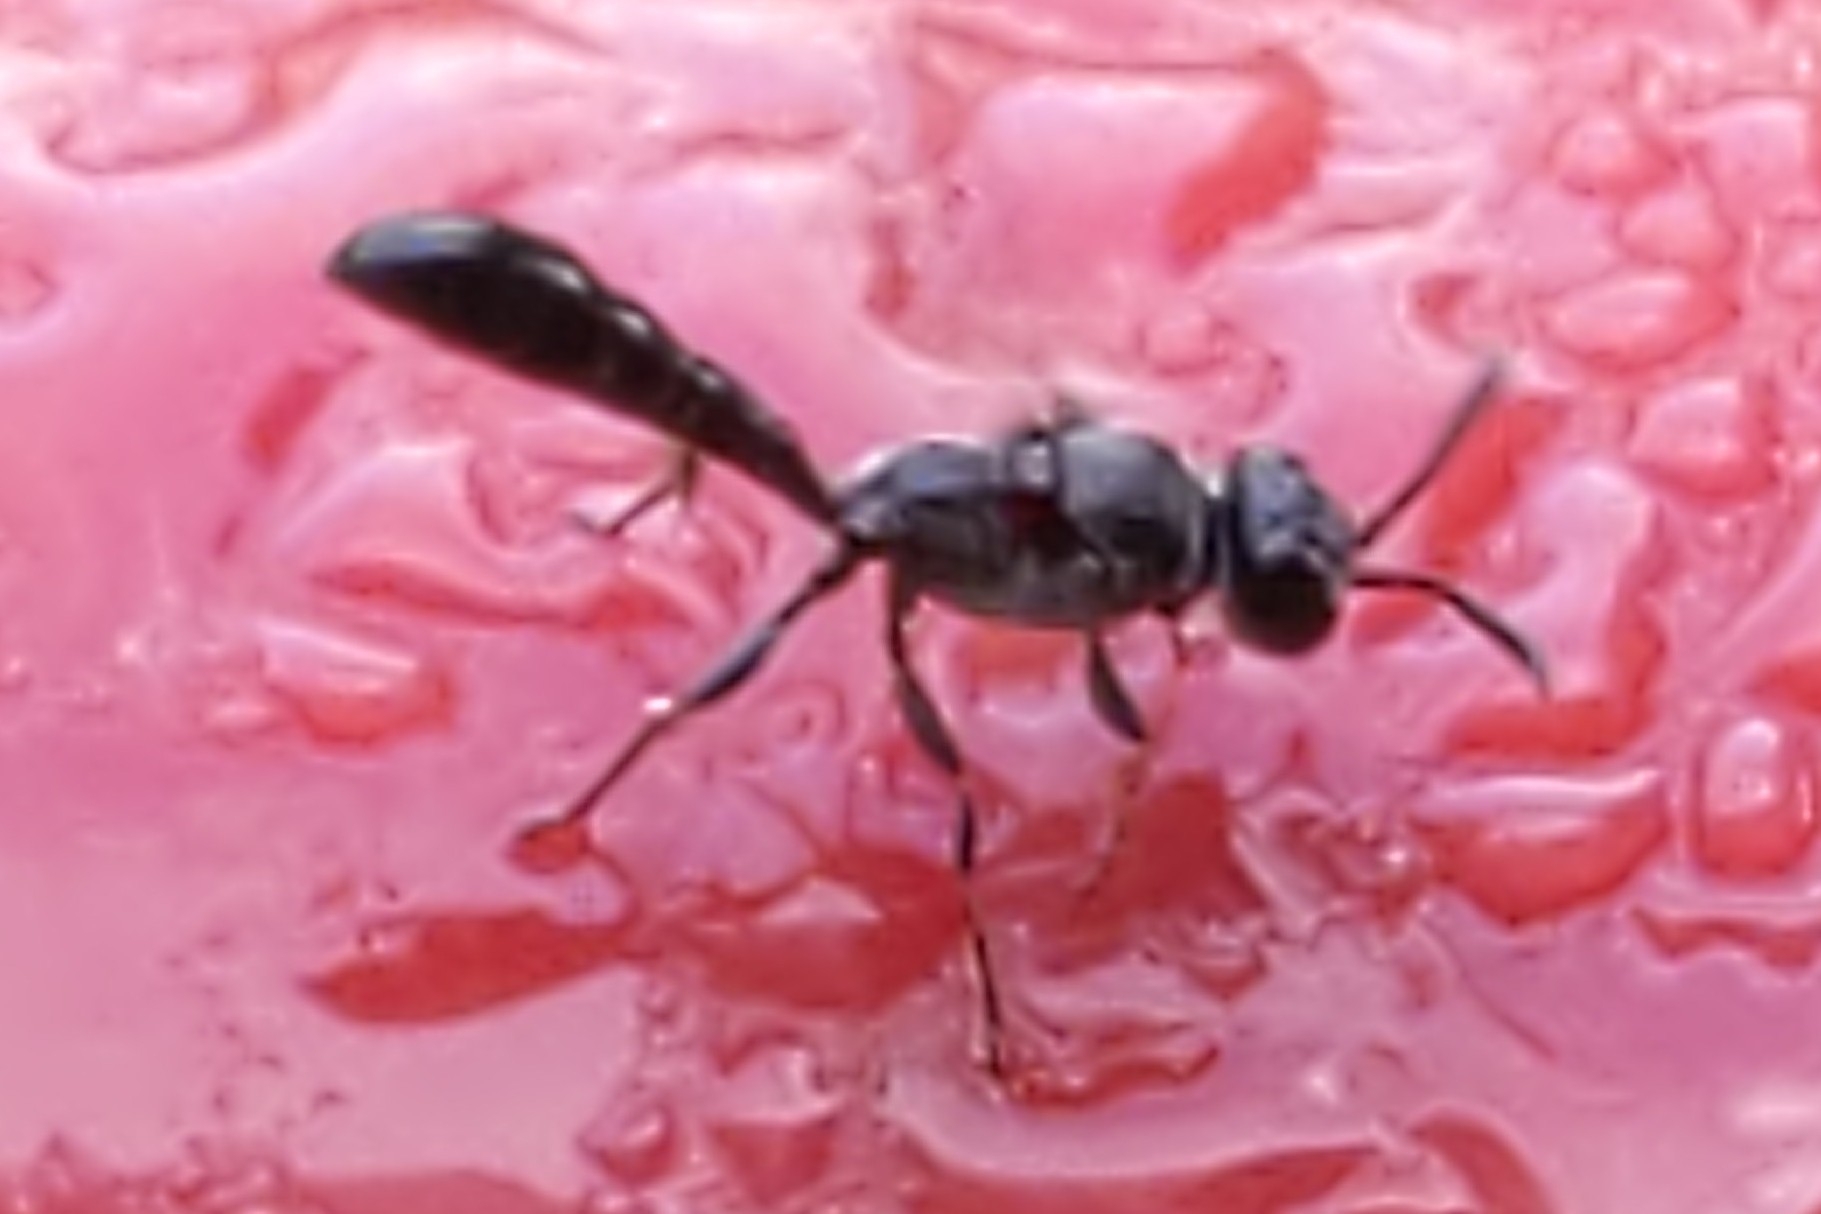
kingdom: Animalia
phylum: Arthropoda
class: Insecta
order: Hymenoptera
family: Crabronidae
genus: Trypoxylon
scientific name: Trypoxylon
